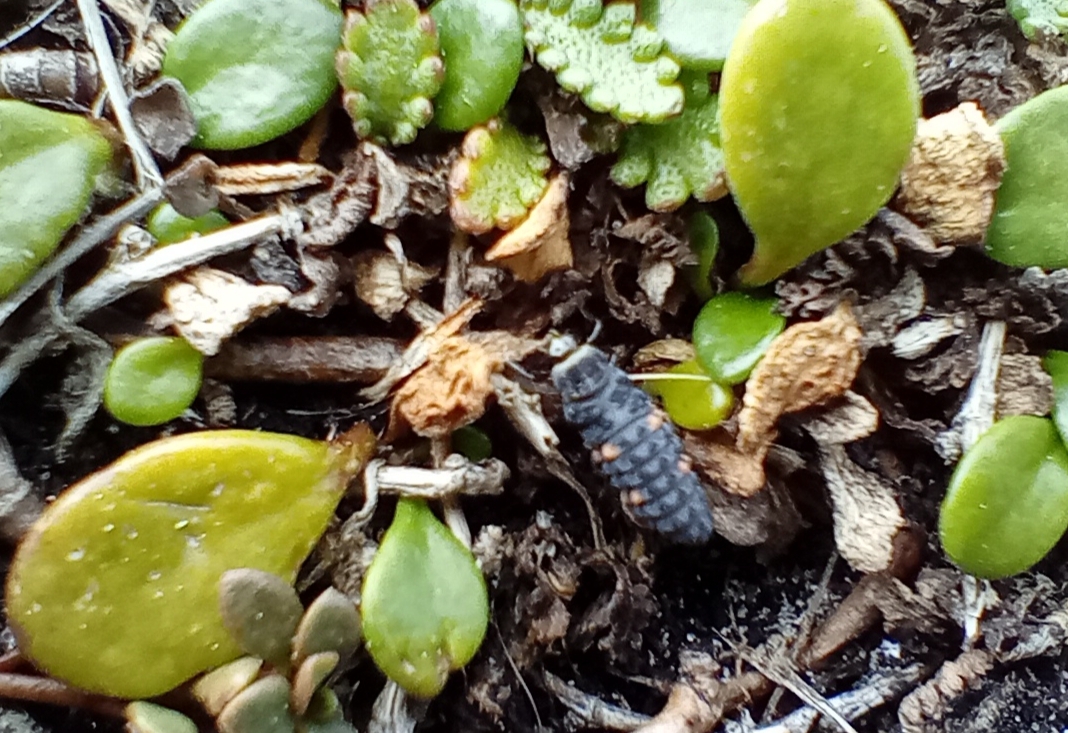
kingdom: Animalia
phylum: Arthropoda
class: Insecta
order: Coleoptera
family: Coccinellidae
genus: Coccinella
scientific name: Coccinella undecimpunctata
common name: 11-spot ladybird
